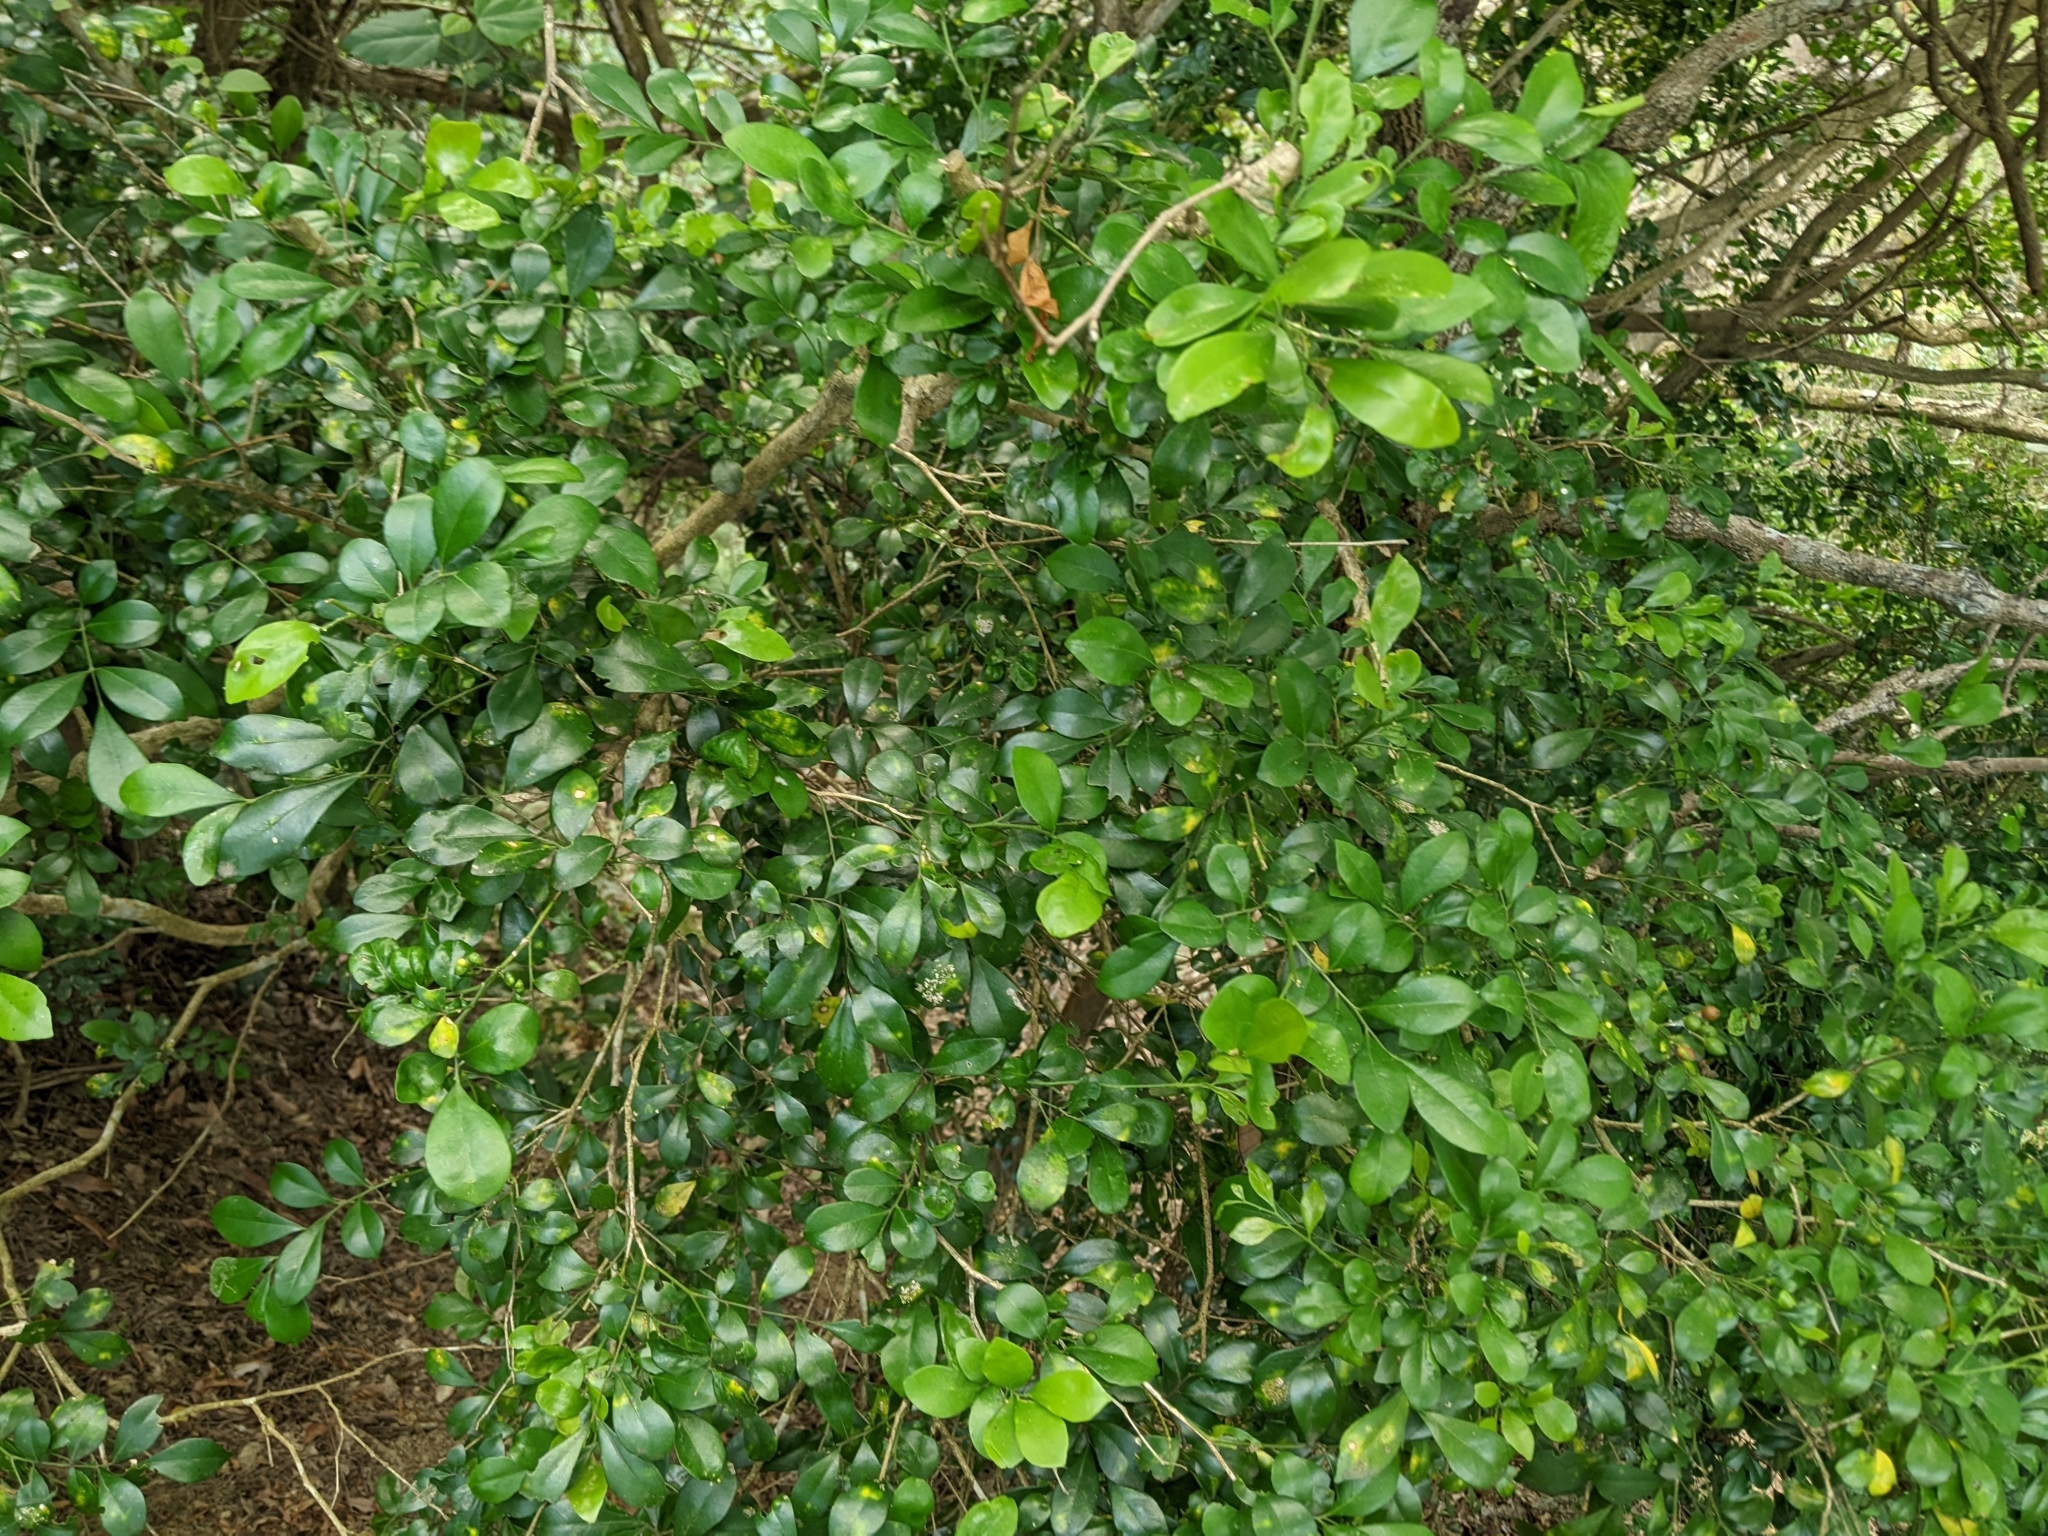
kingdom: Plantae
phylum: Tracheophyta
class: Magnoliopsida
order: Sapindales
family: Rutaceae
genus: Murraya
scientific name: Murraya paniculata
